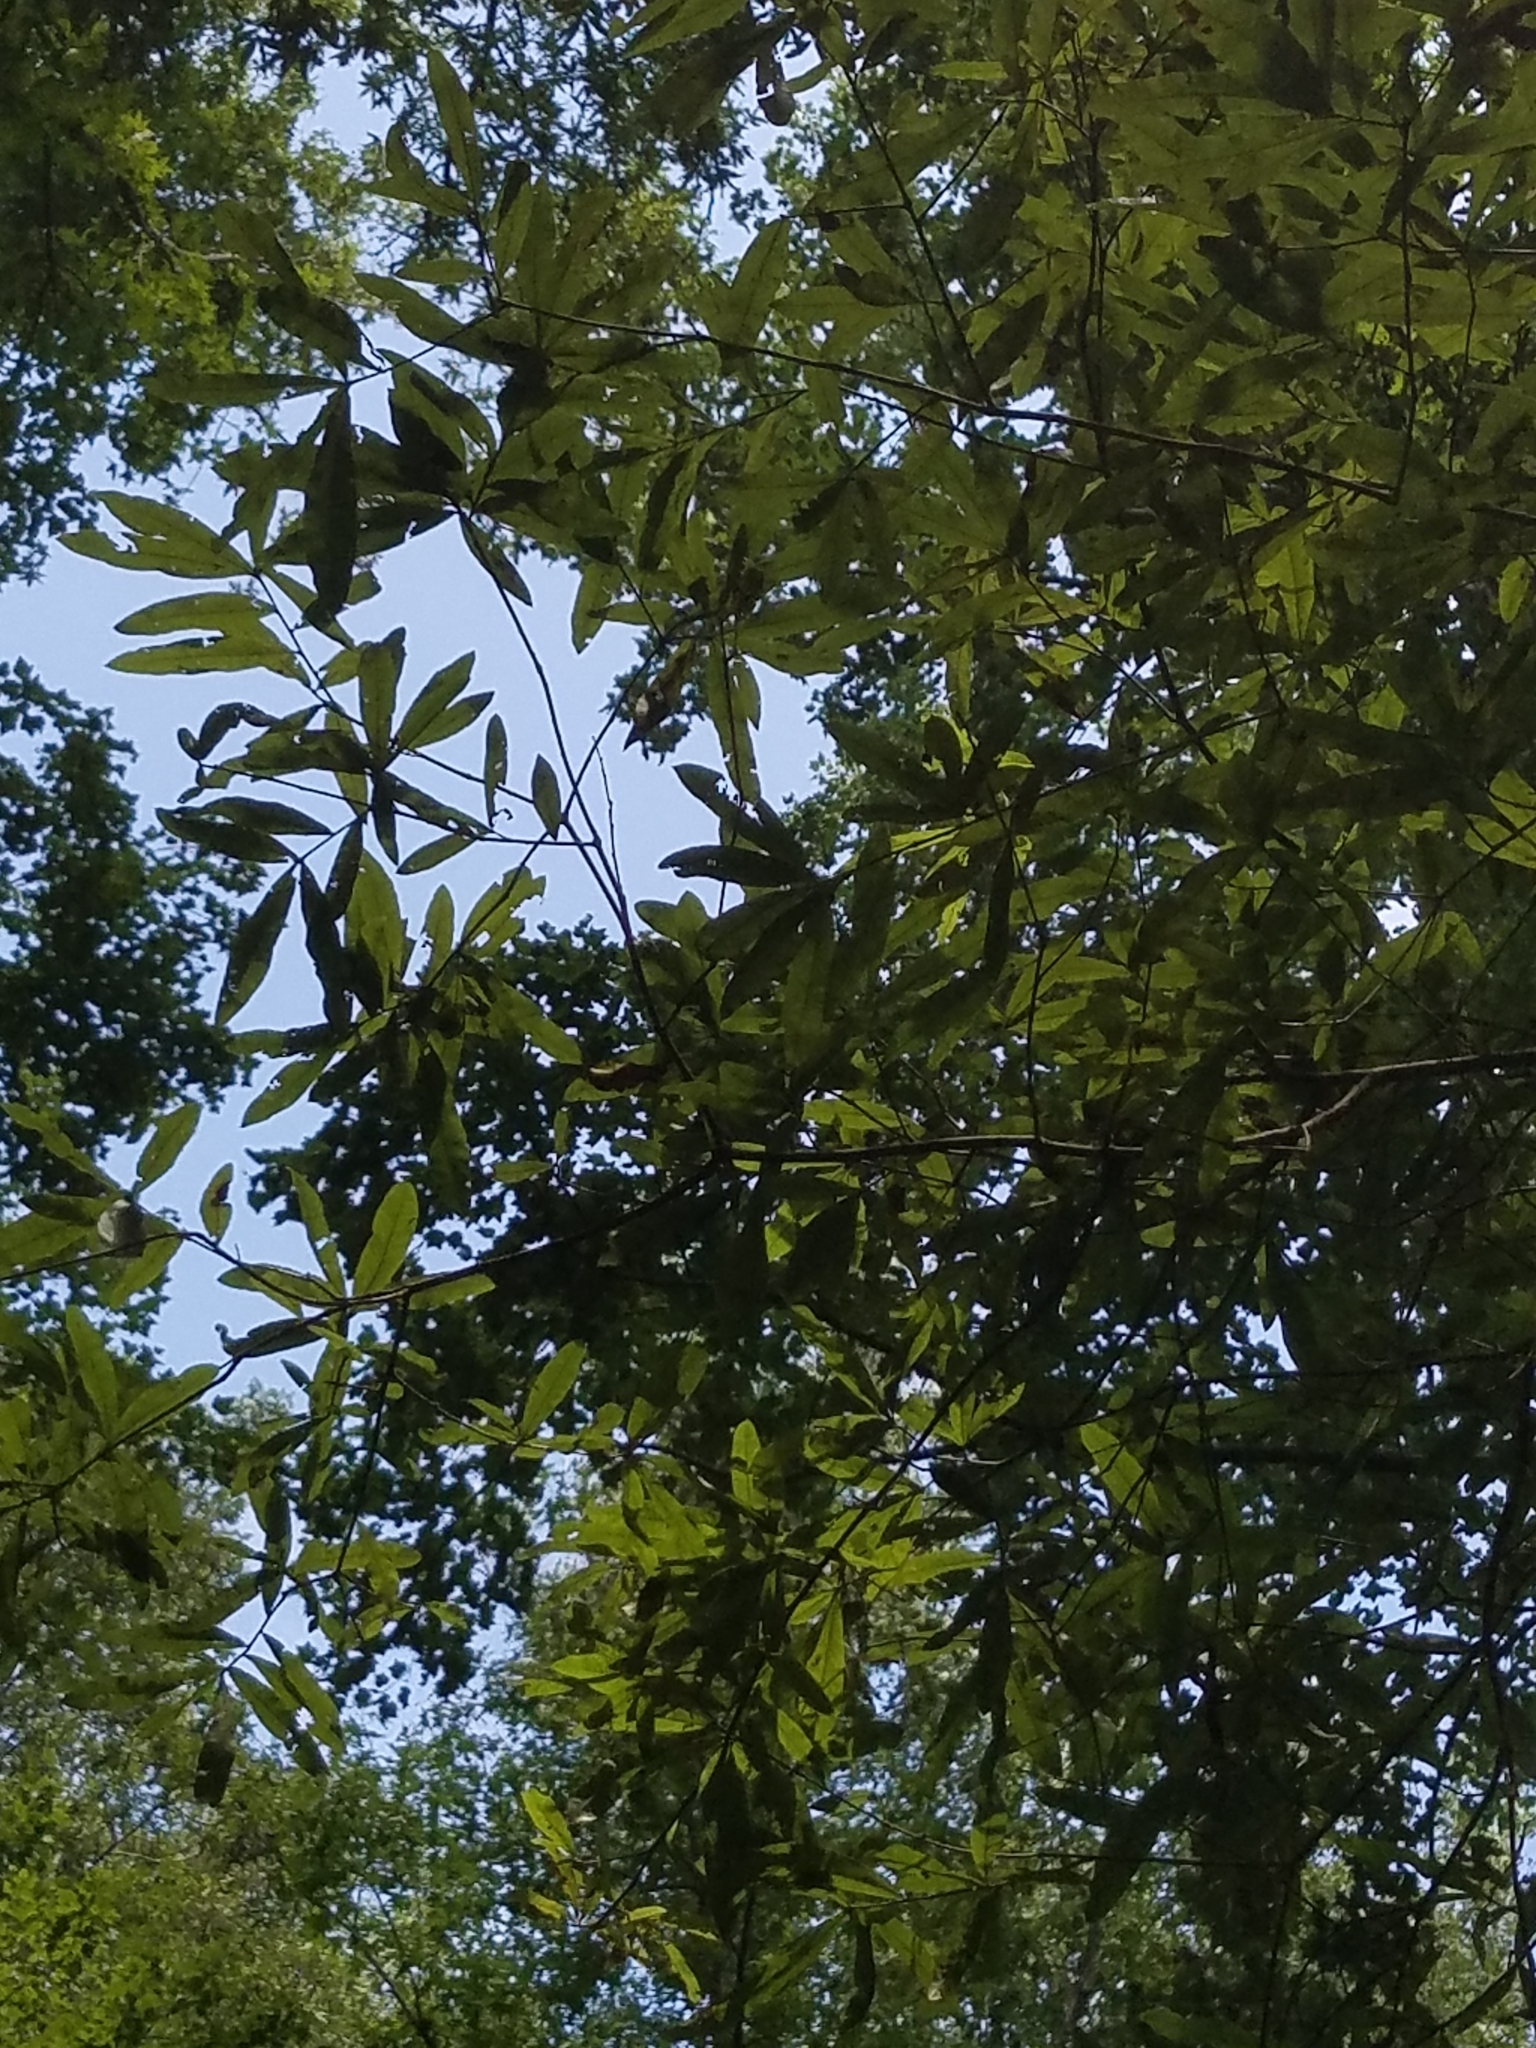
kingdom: Plantae
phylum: Tracheophyta
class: Magnoliopsida
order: Fagales
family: Fagaceae
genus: Quercus
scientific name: Quercus phellos
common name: Willow oak
